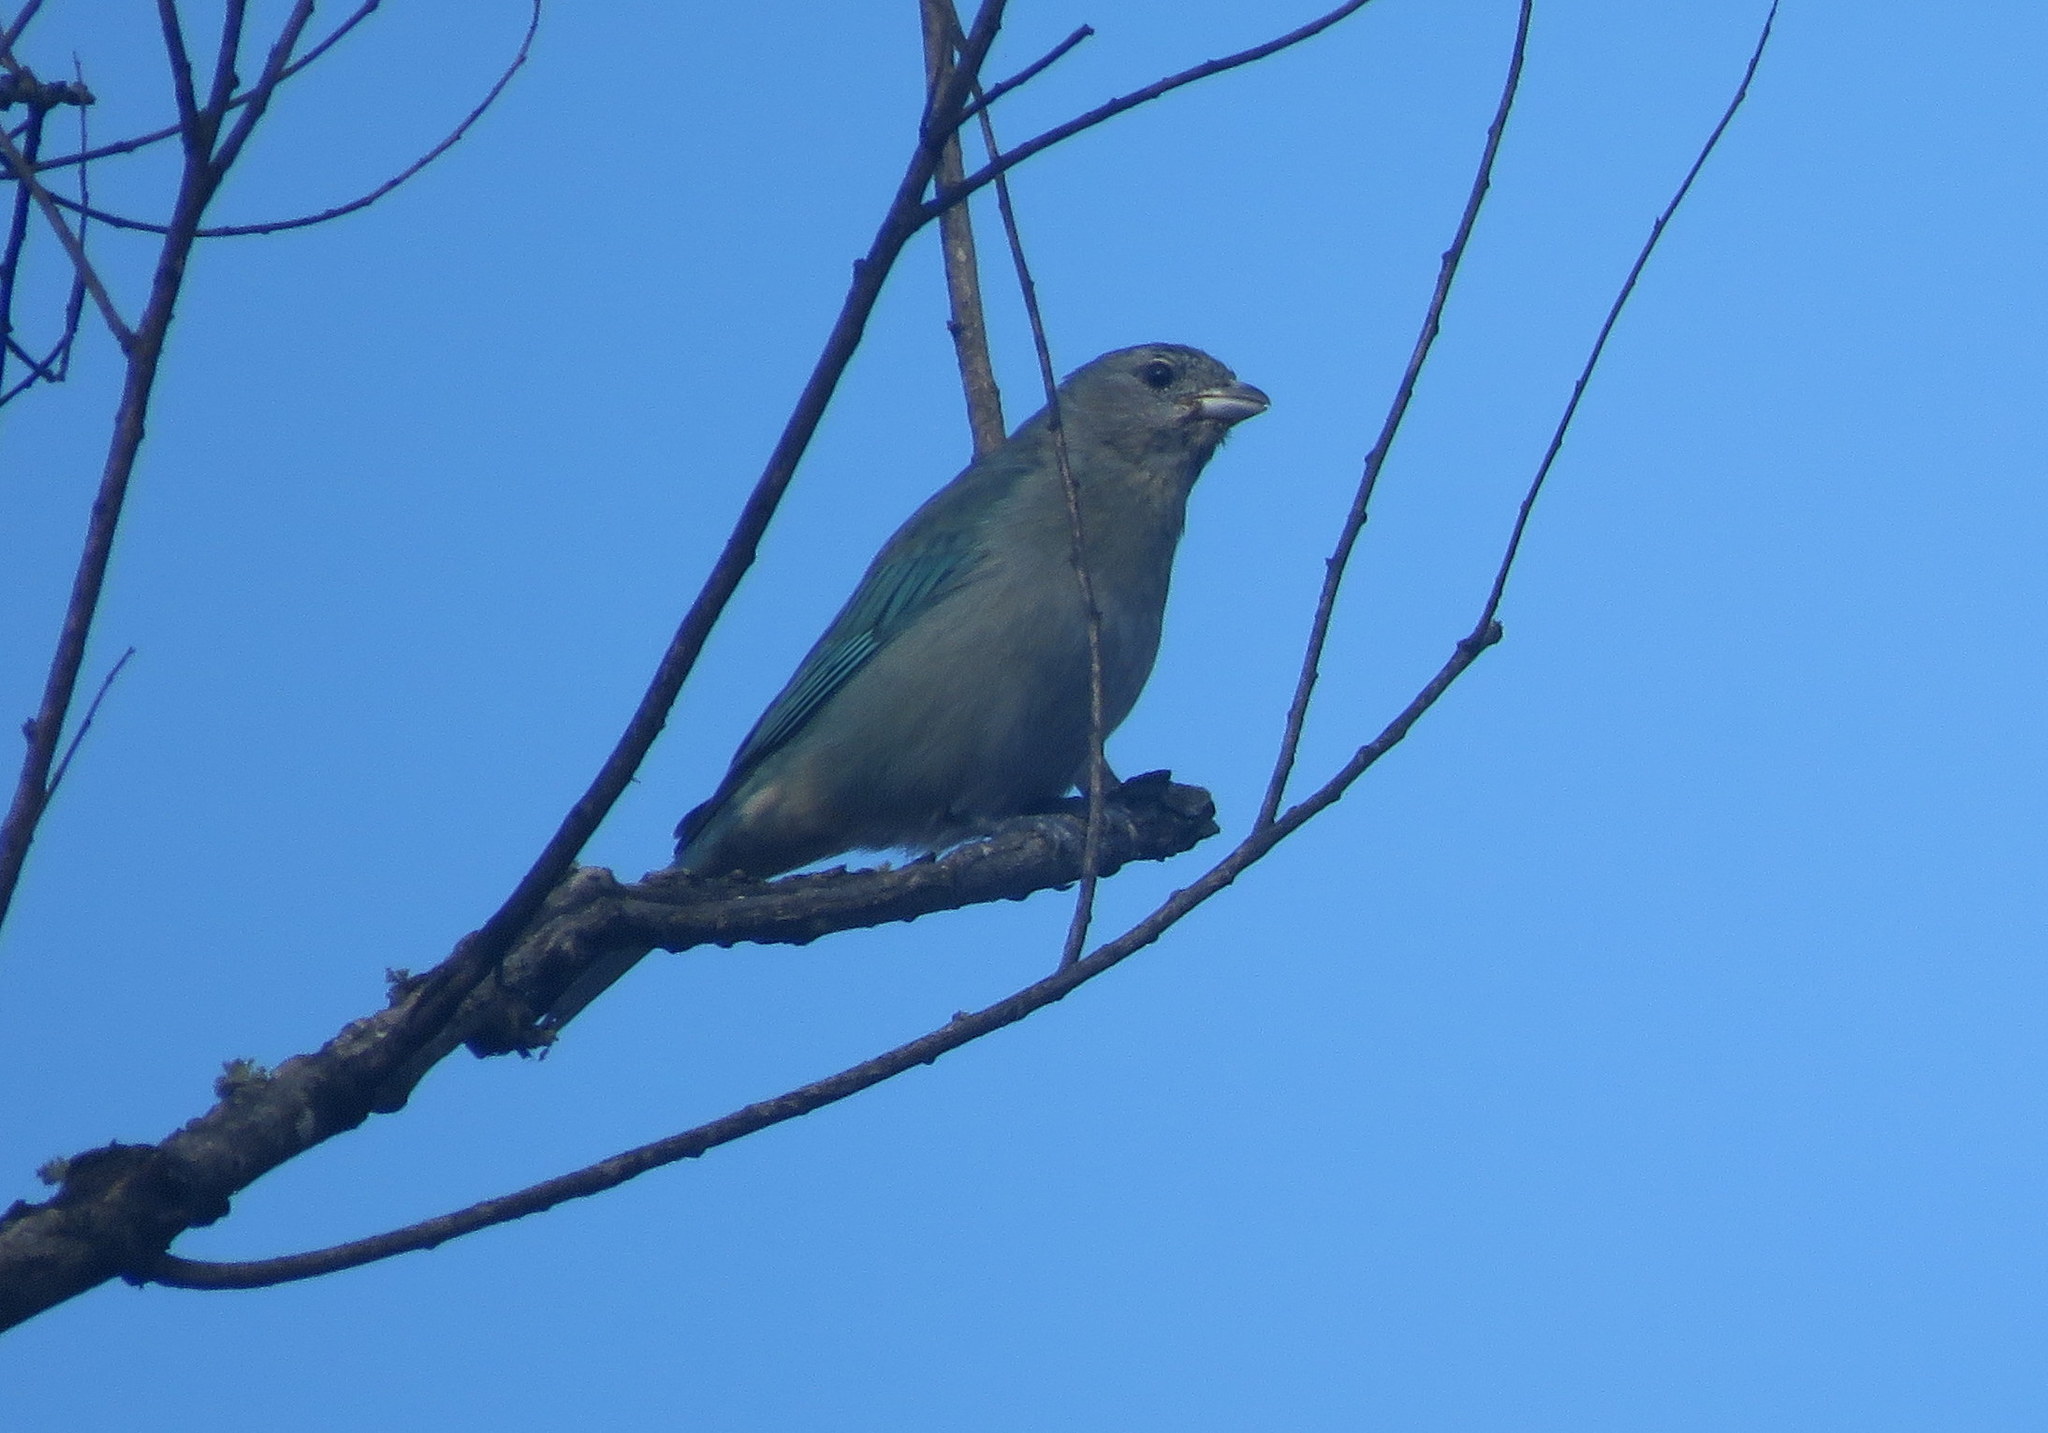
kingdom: Animalia
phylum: Chordata
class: Aves
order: Passeriformes
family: Thraupidae
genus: Thraupis
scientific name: Thraupis sayaca
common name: Sayaca tanager
